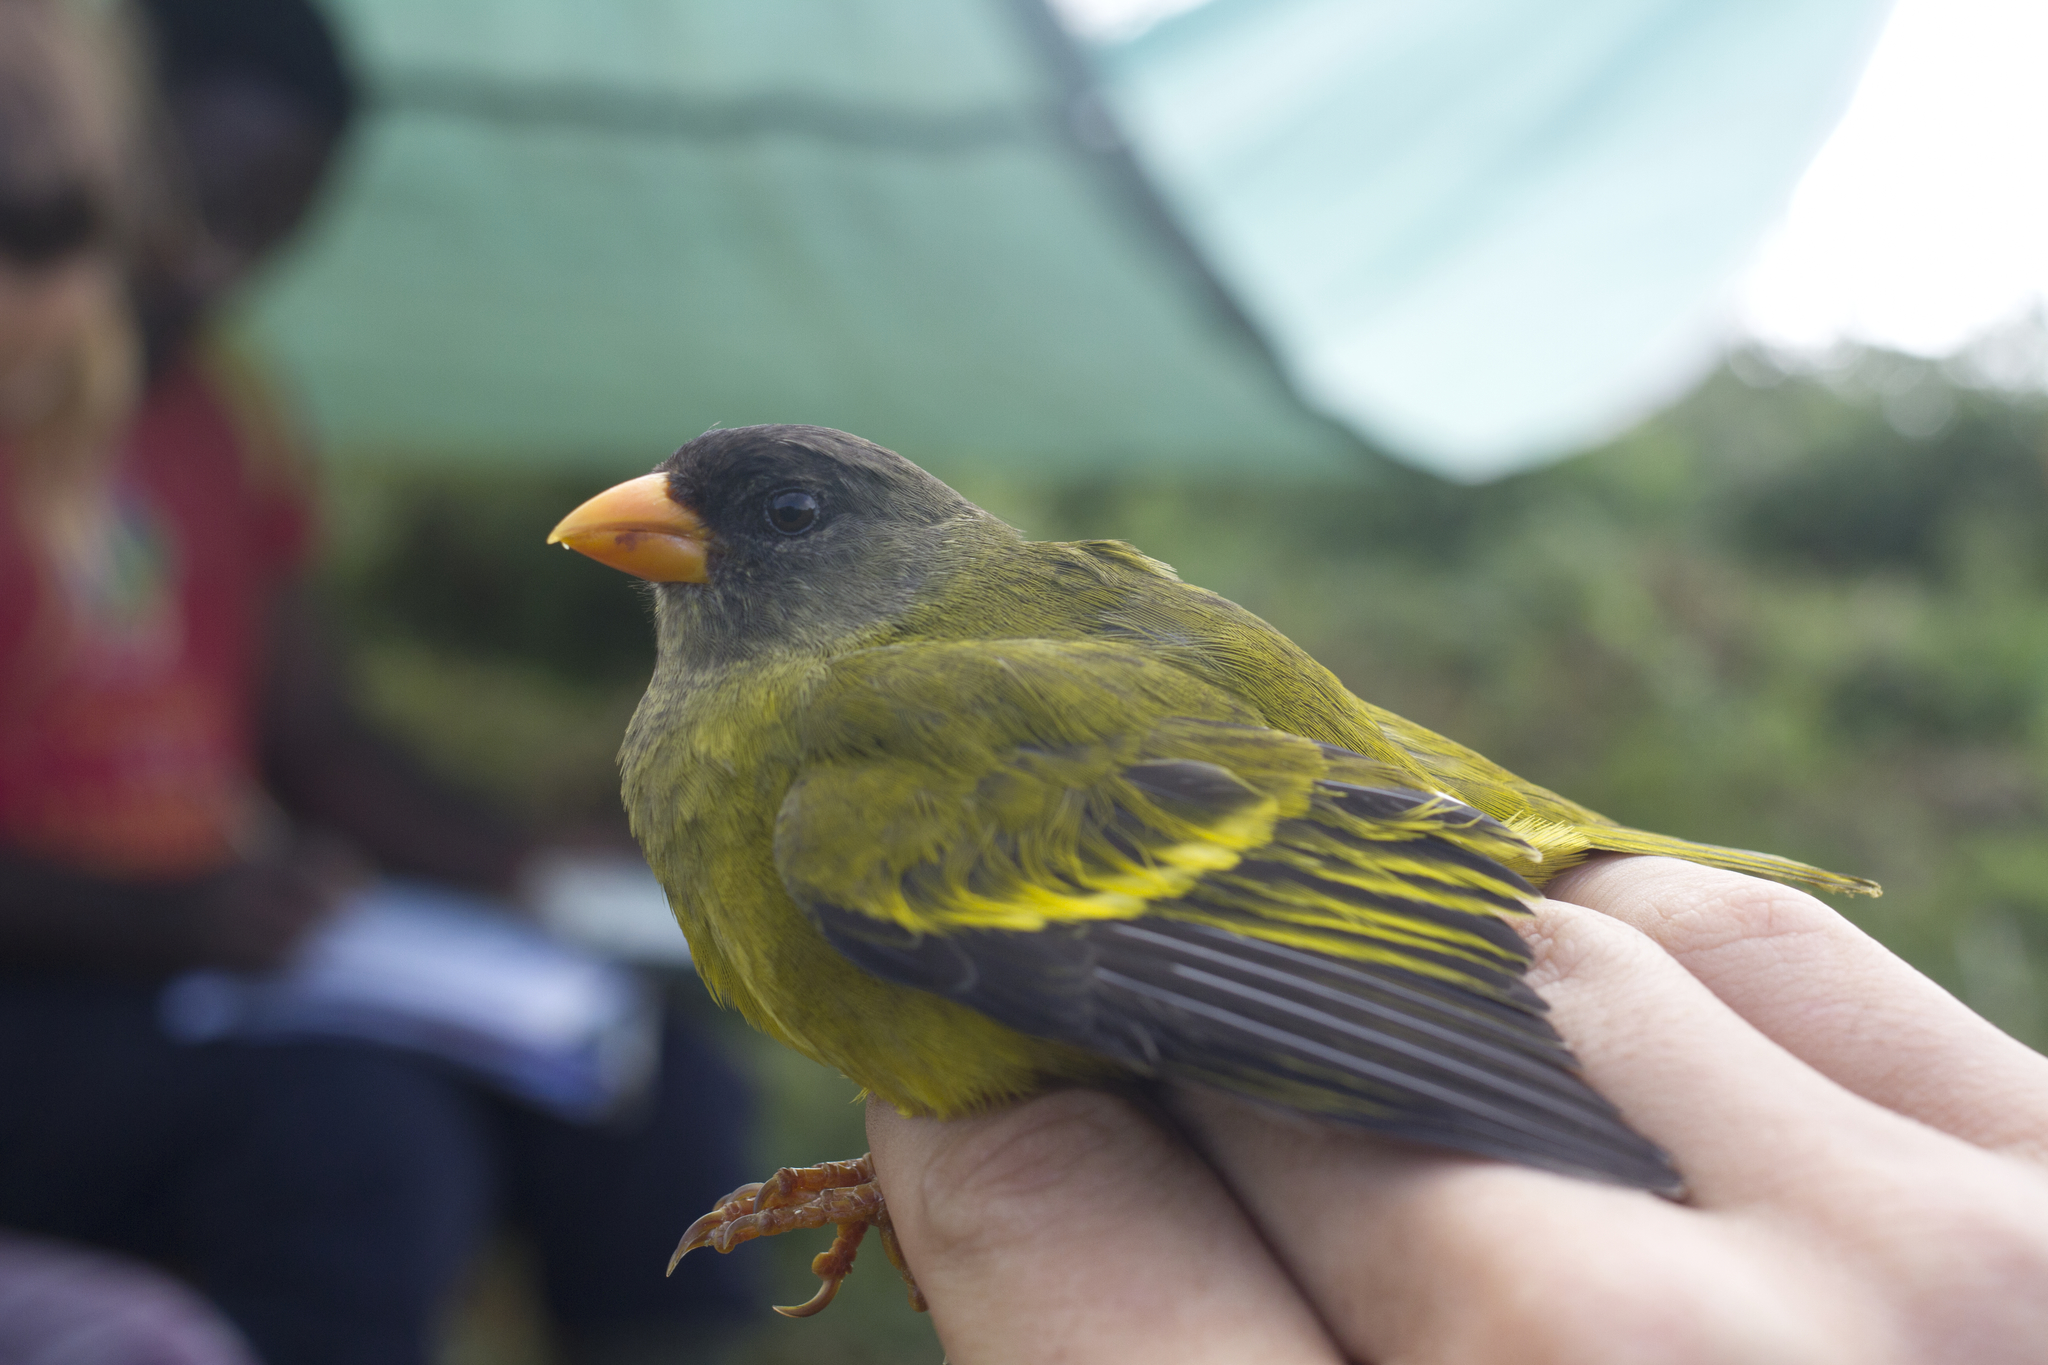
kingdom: Animalia
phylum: Chordata
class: Aves
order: Passeriformes
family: Fringillidae
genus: Linurgus
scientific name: Linurgus olivaceus
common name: Oriole finch
